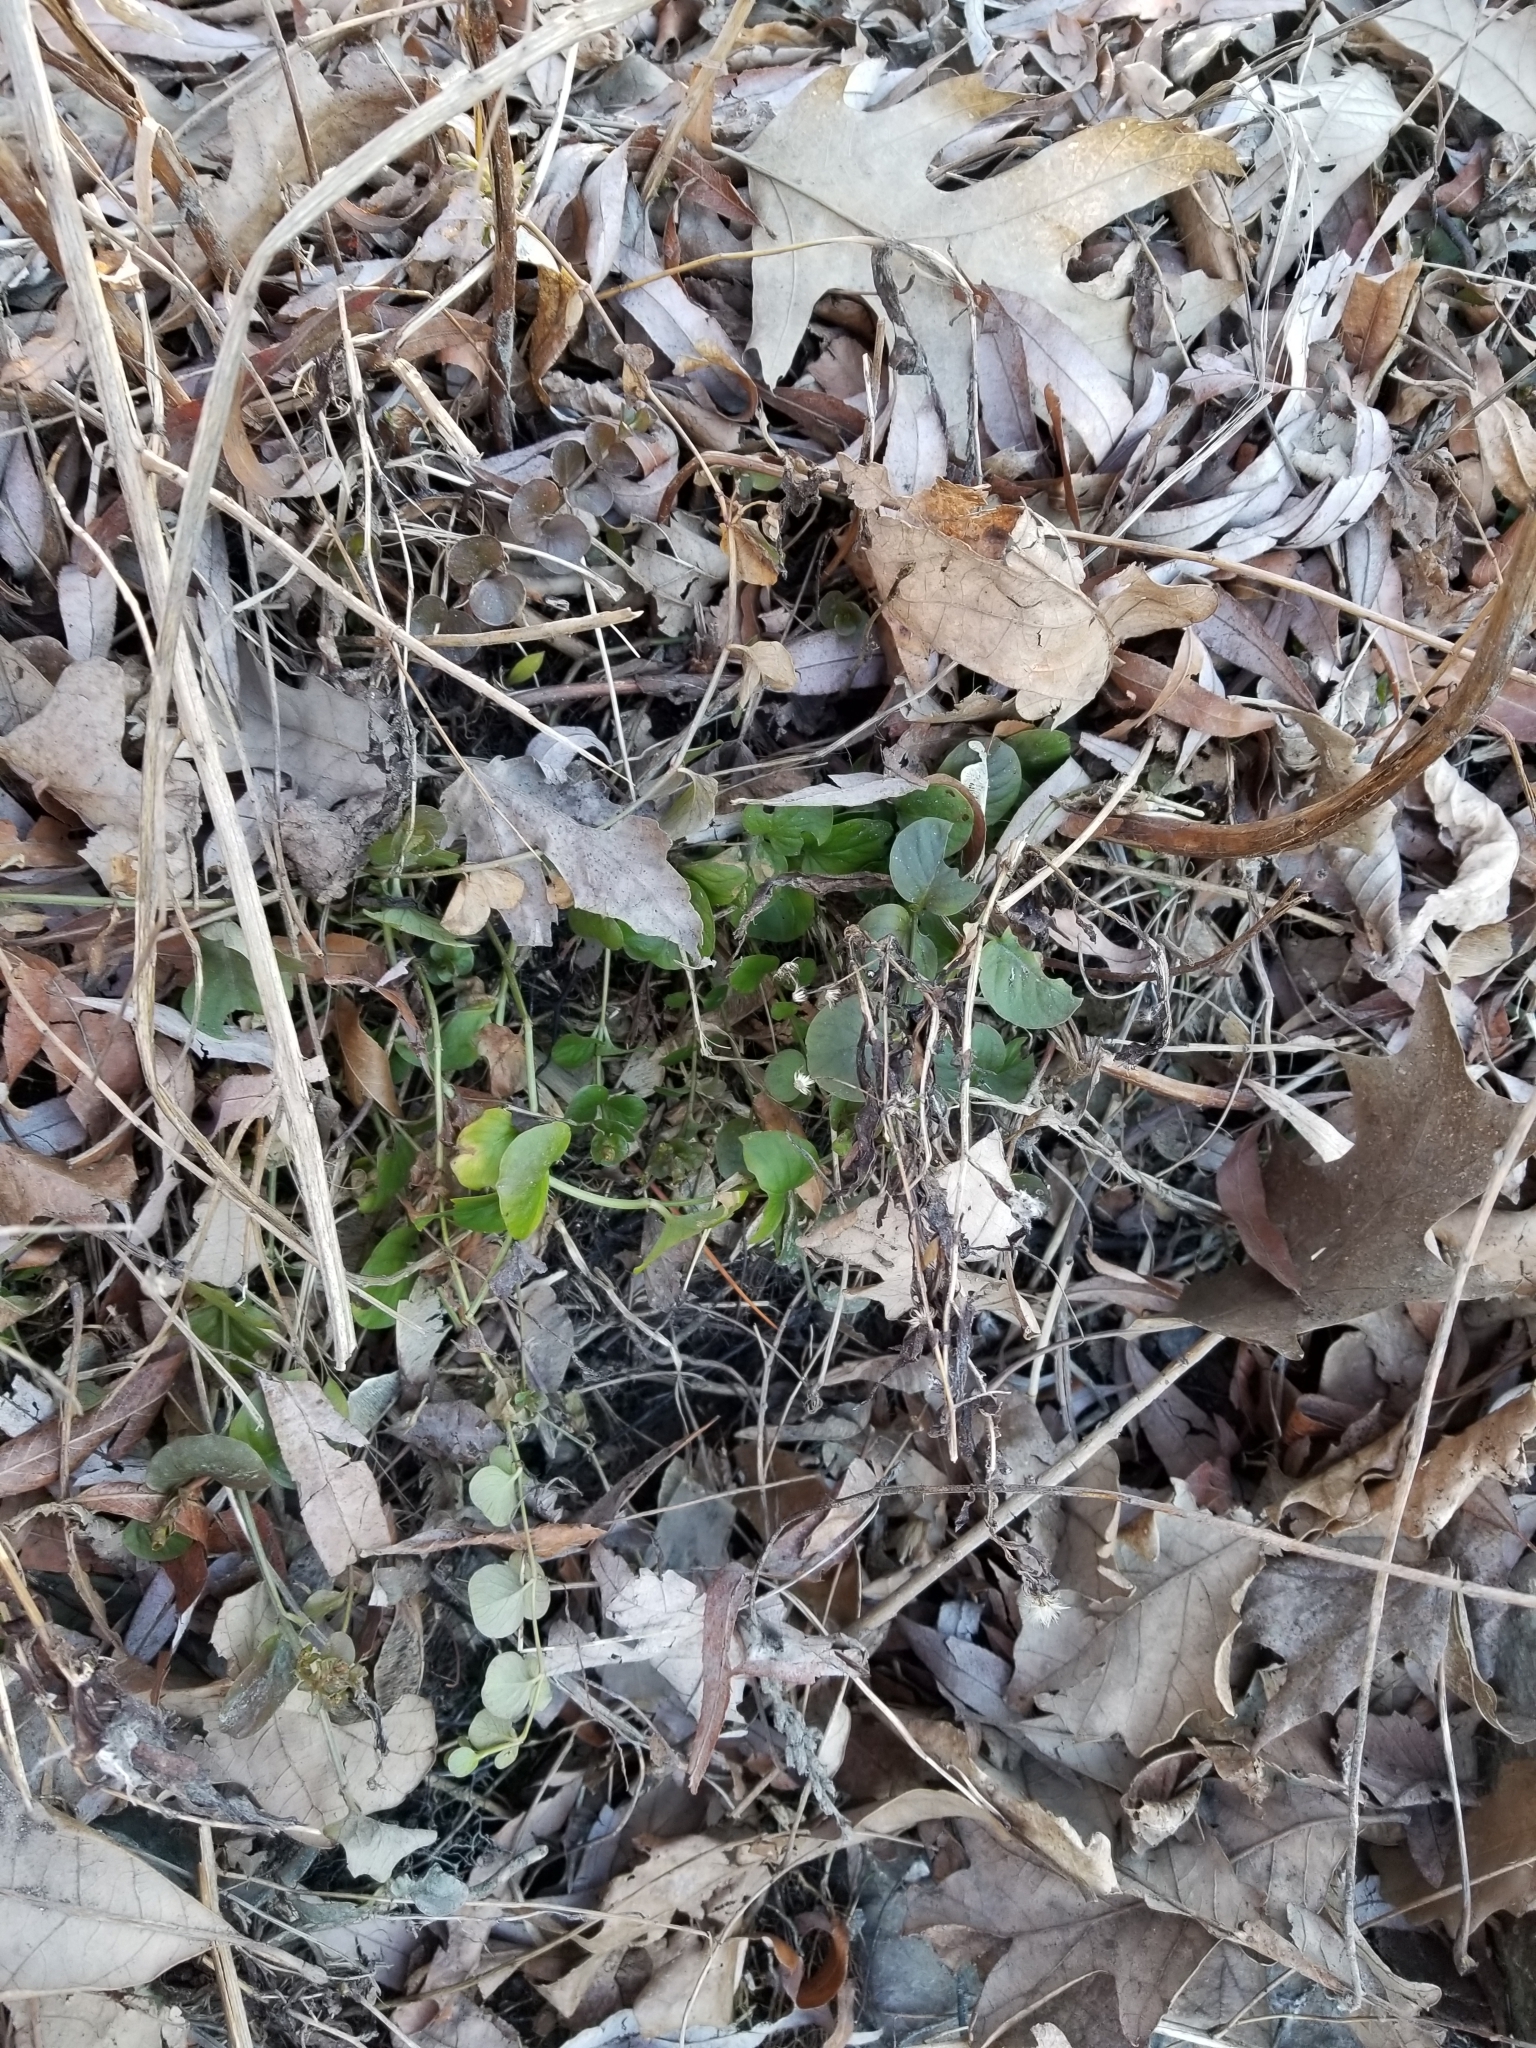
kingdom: Plantae
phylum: Tracheophyta
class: Magnoliopsida
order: Ericales
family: Primulaceae
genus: Lysimachia
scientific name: Lysimachia nummularia
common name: Moneywort
